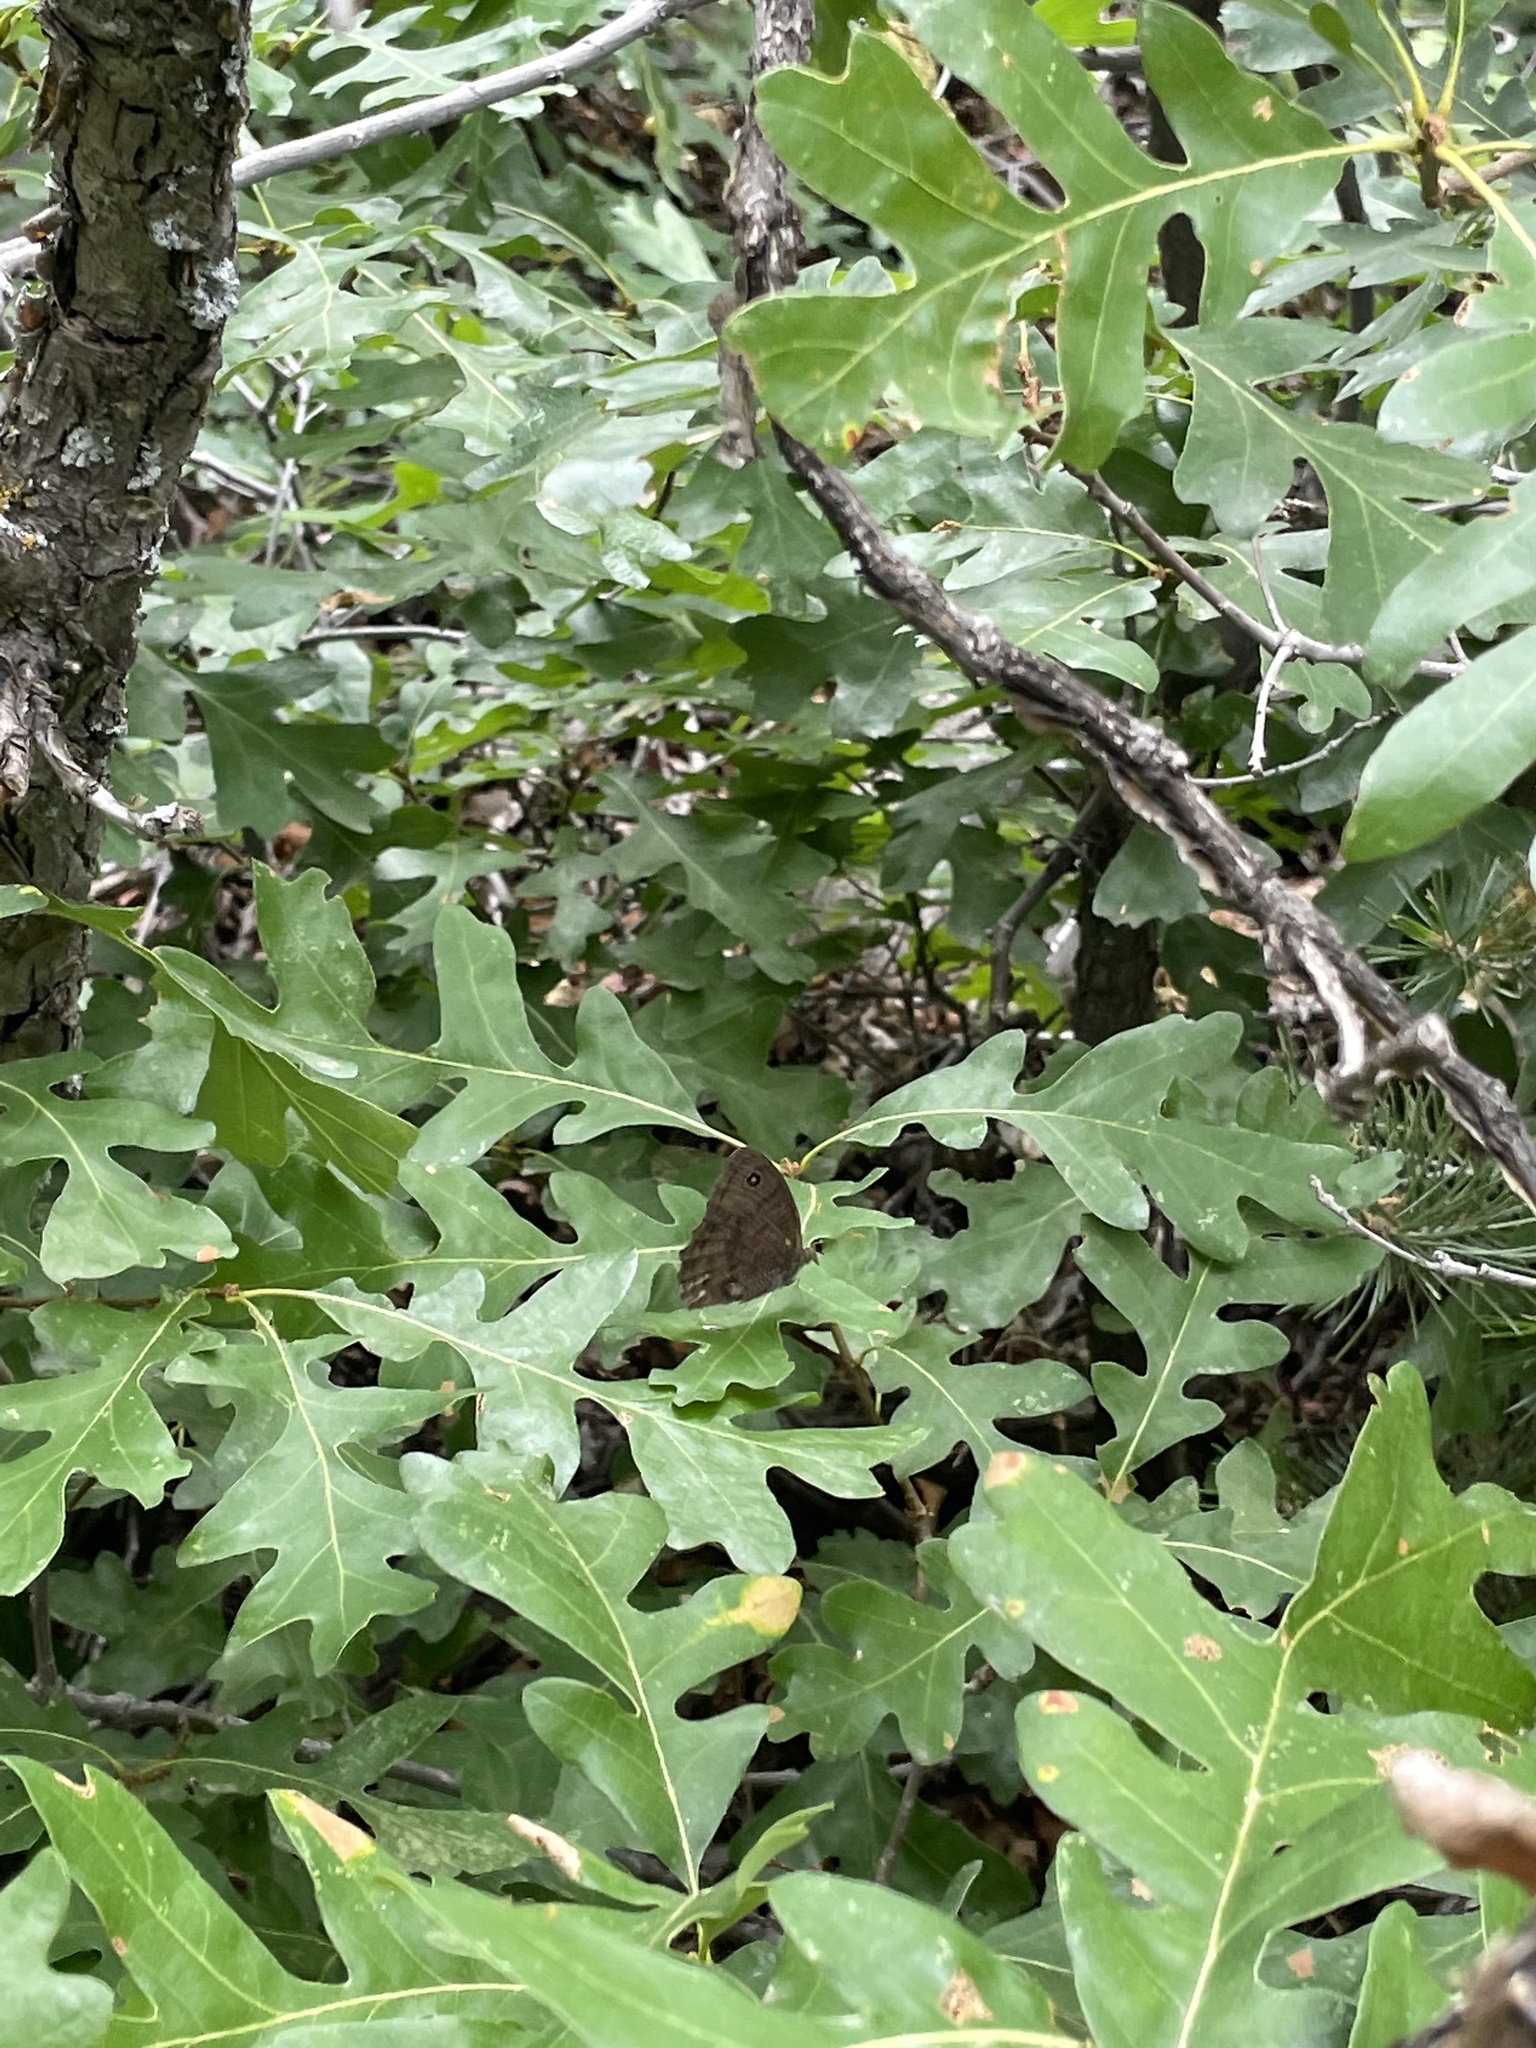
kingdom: Animalia
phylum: Arthropoda
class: Insecta
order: Lepidoptera
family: Nymphalidae
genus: Cercyonis
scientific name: Cercyonis pegala
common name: Common wood-nymph
